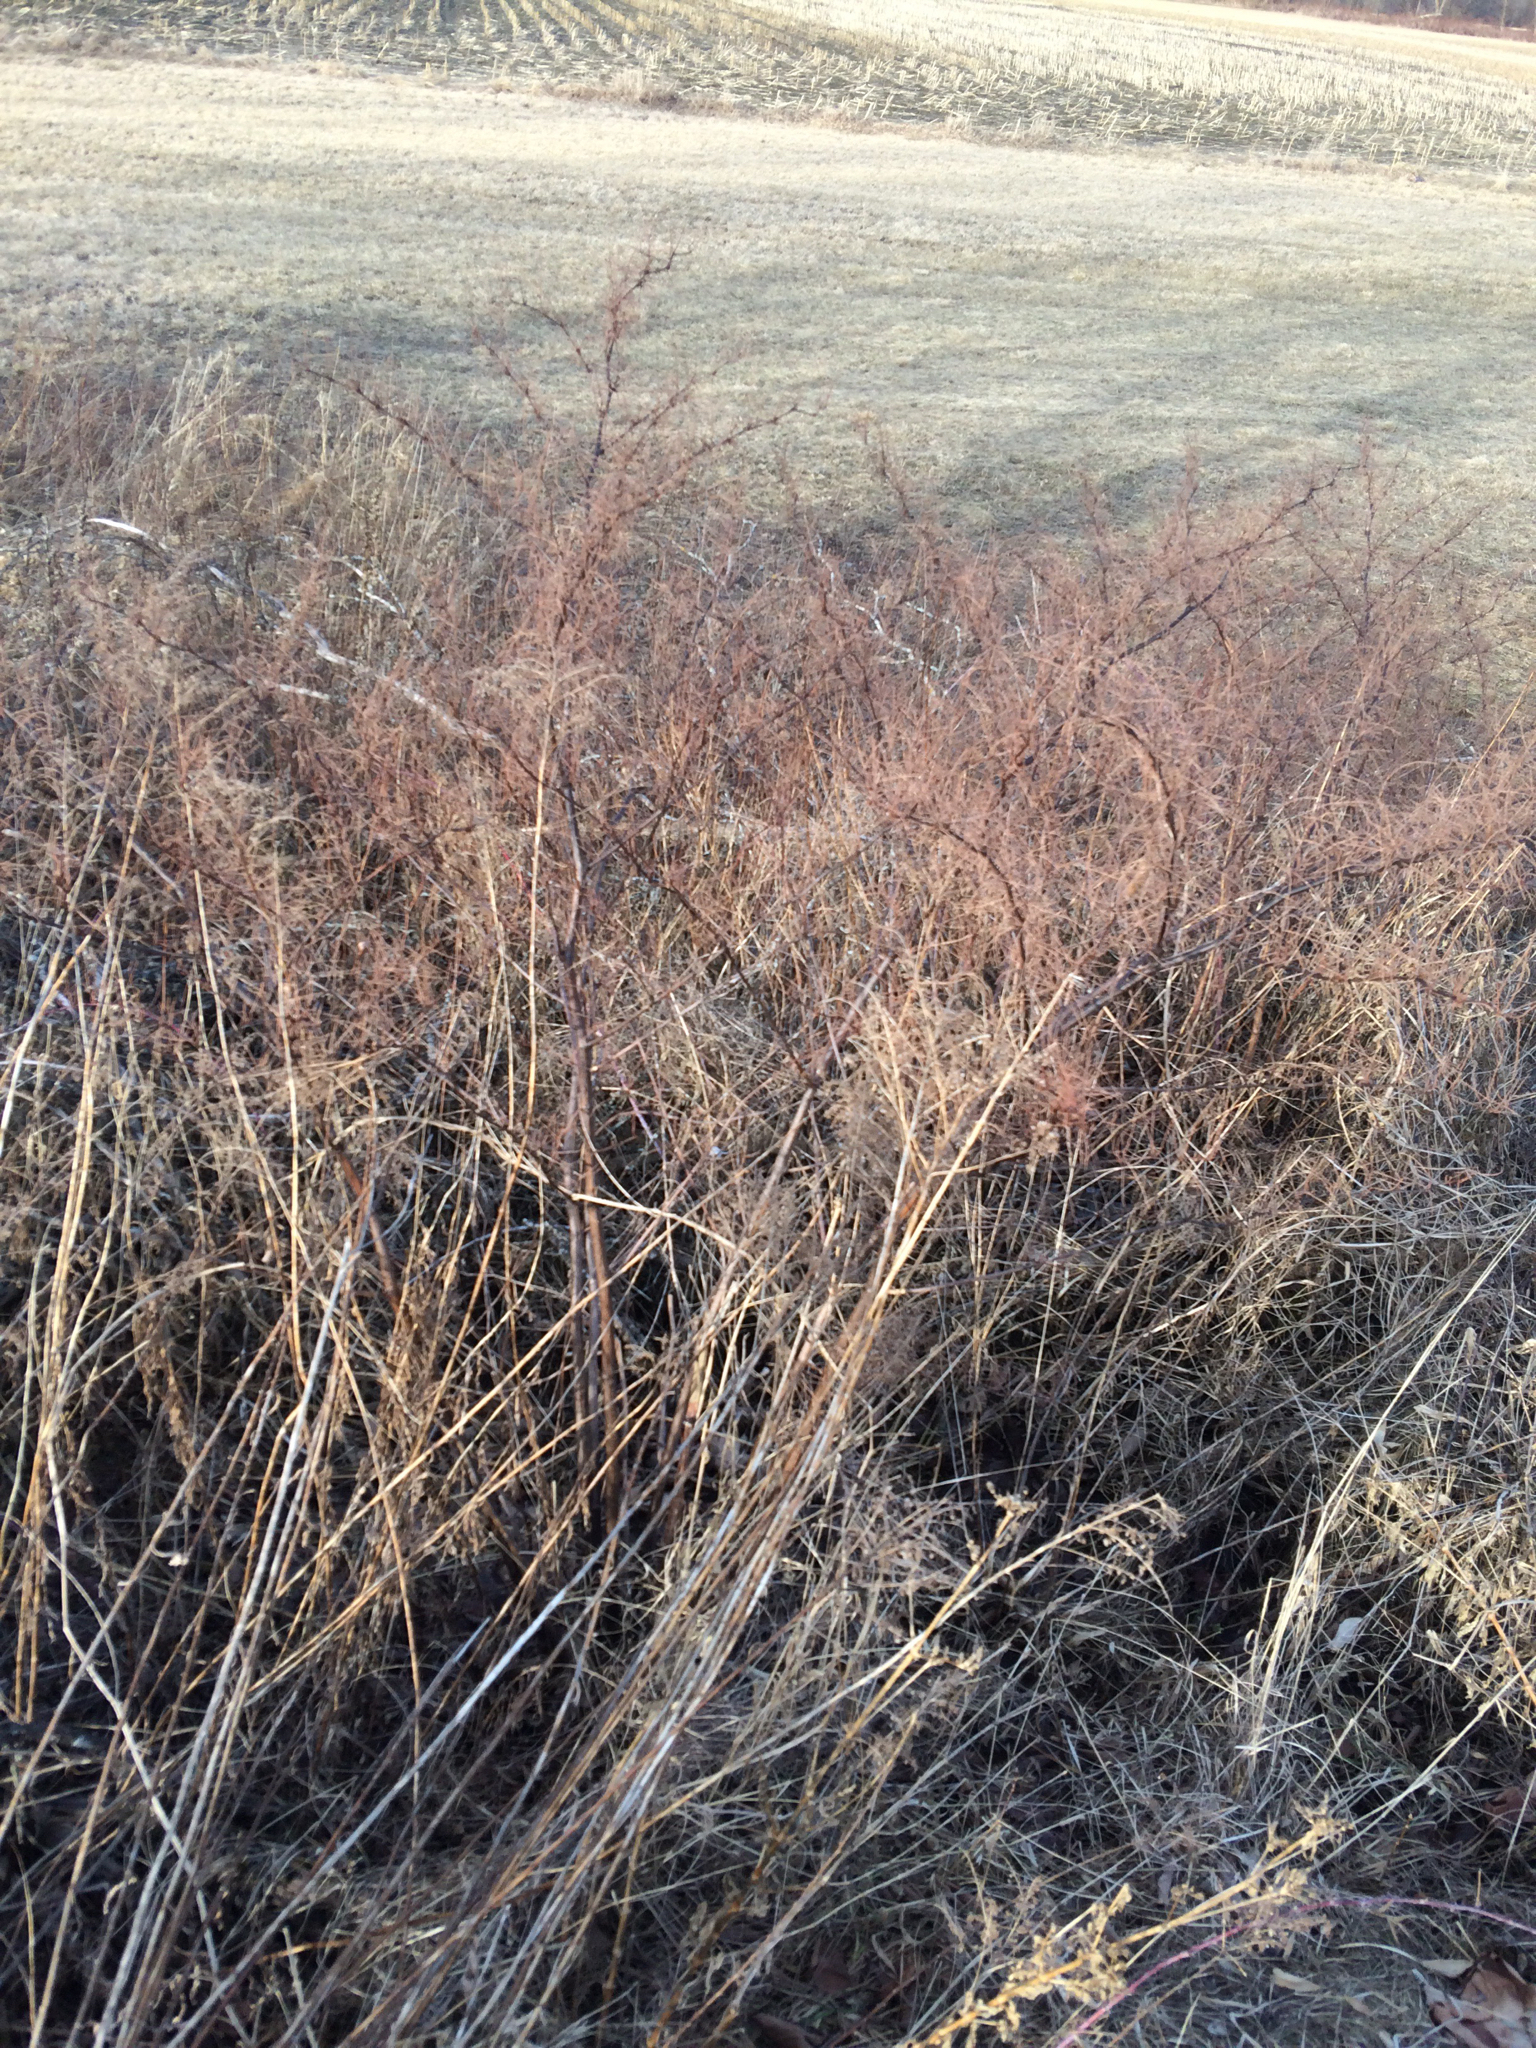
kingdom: Plantae
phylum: Tracheophyta
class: Magnoliopsida
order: Caryophyllales
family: Polygonaceae
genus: Reynoutria
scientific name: Reynoutria japonica
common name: Japanese knotweed
